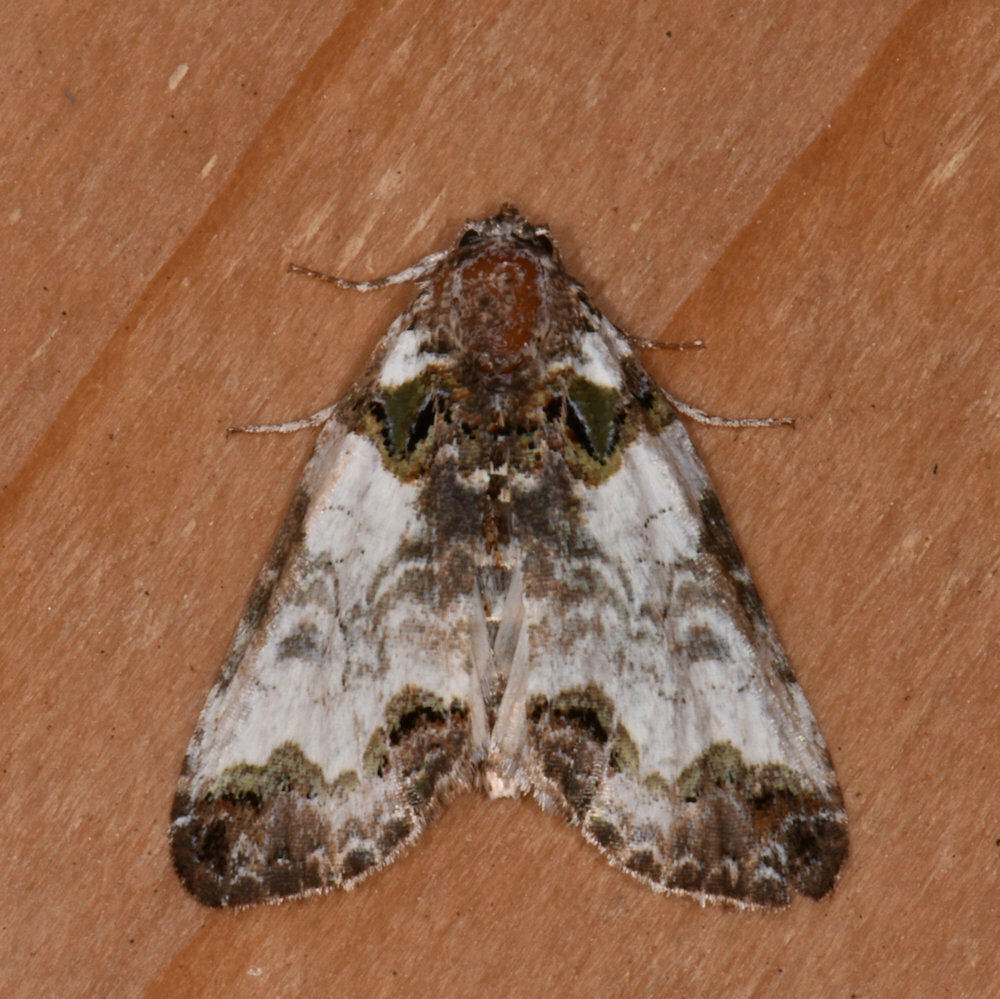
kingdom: Animalia
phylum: Arthropoda
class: Insecta
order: Lepidoptera
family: Noctuidae
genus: Cerma
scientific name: Cerma cerintha
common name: Tufted bird-dropping moth
